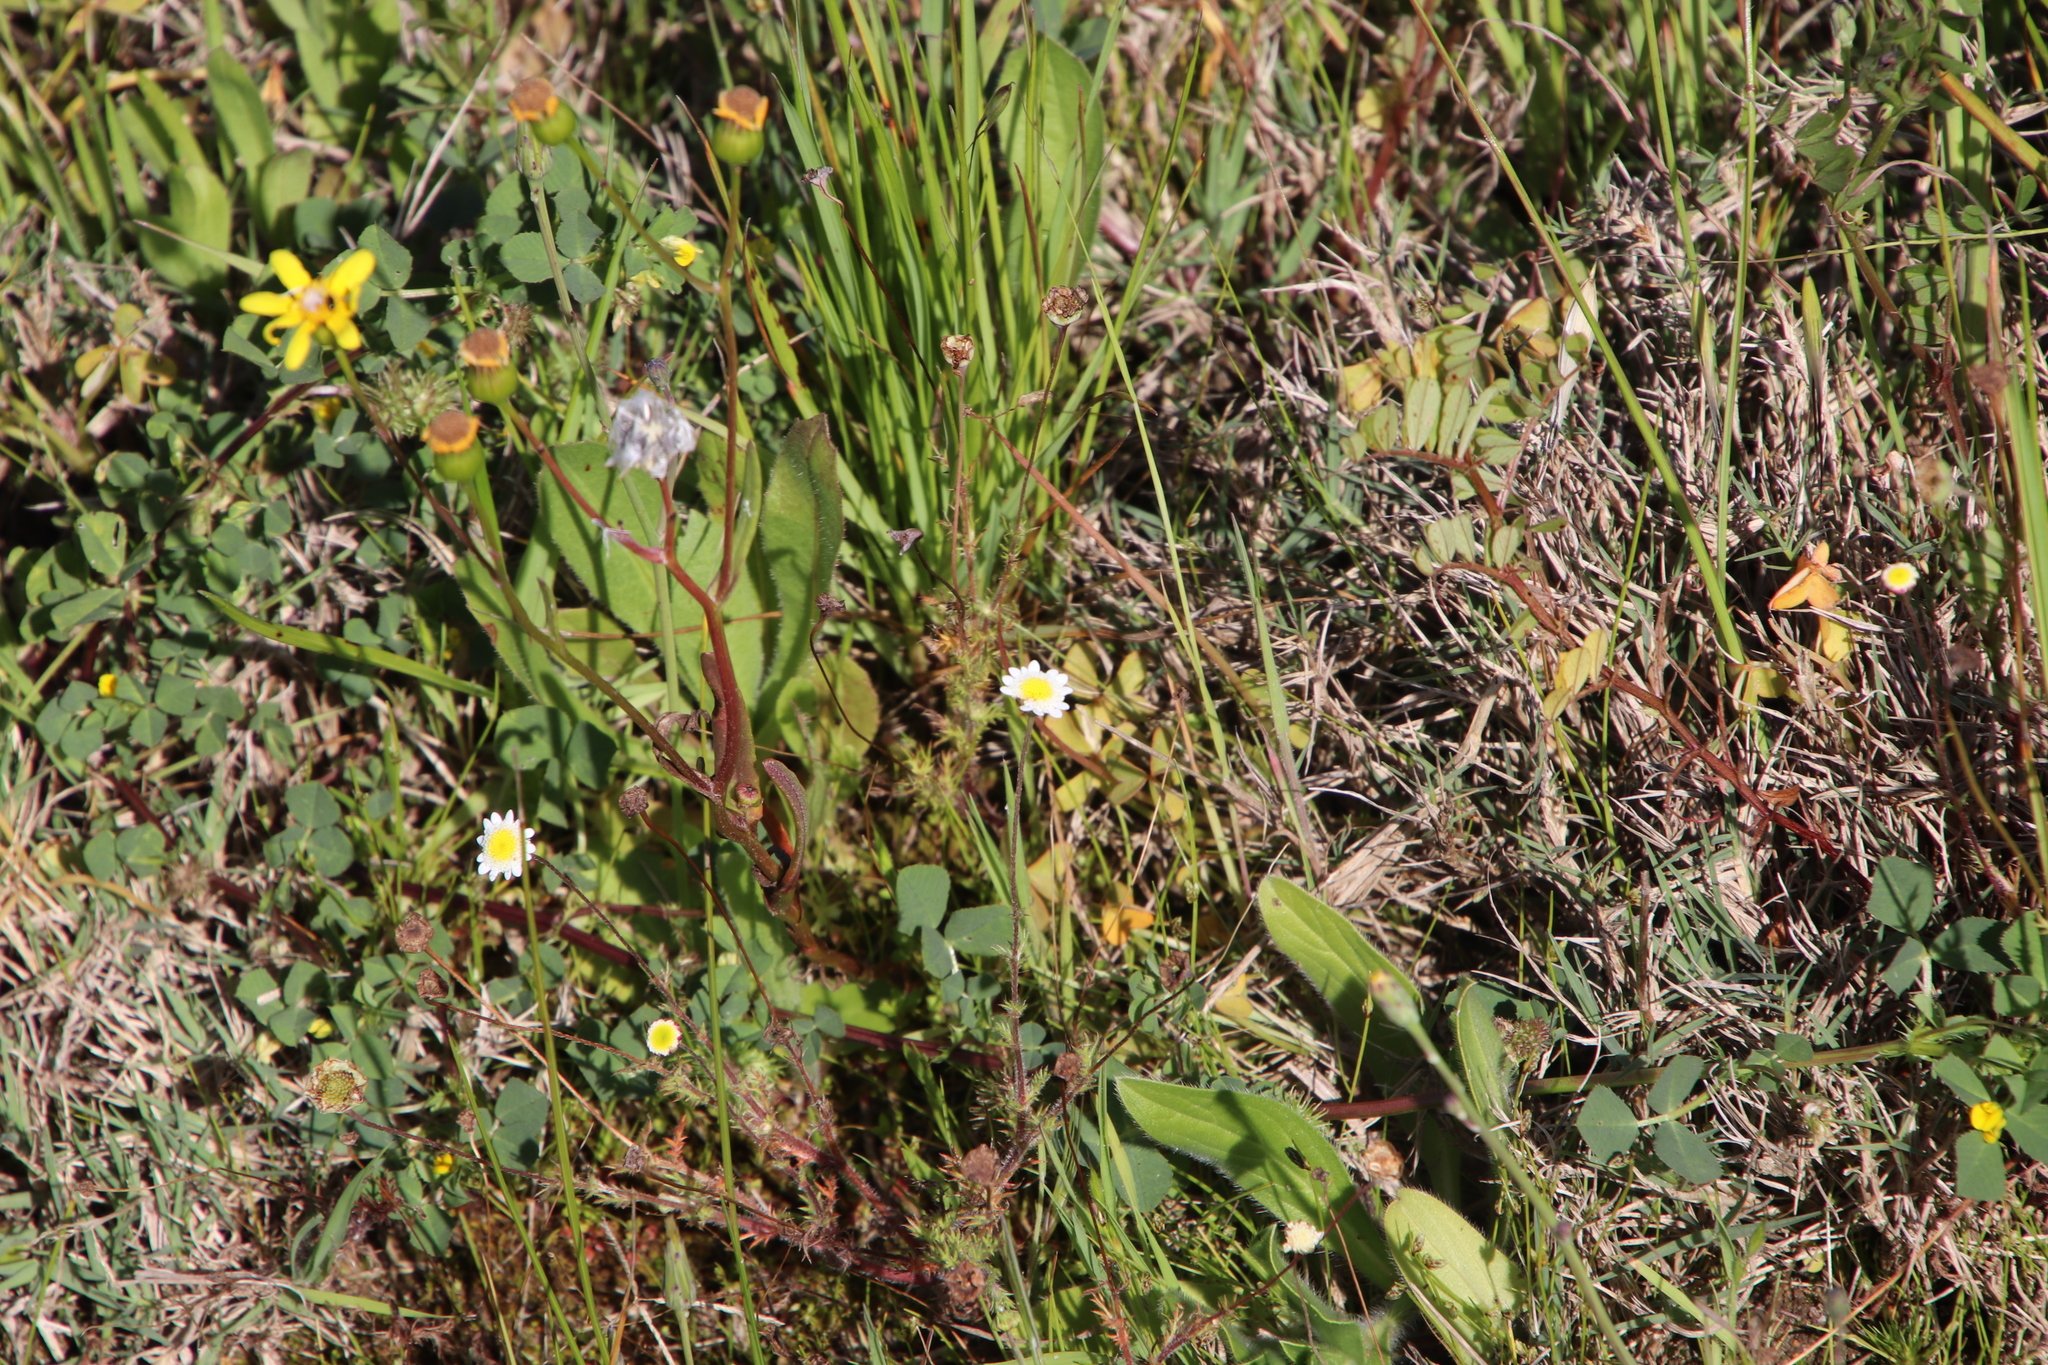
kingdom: Plantae
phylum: Tracheophyta
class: Magnoliopsida
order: Asterales
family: Asteraceae
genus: Cotula
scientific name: Cotula turbinata
